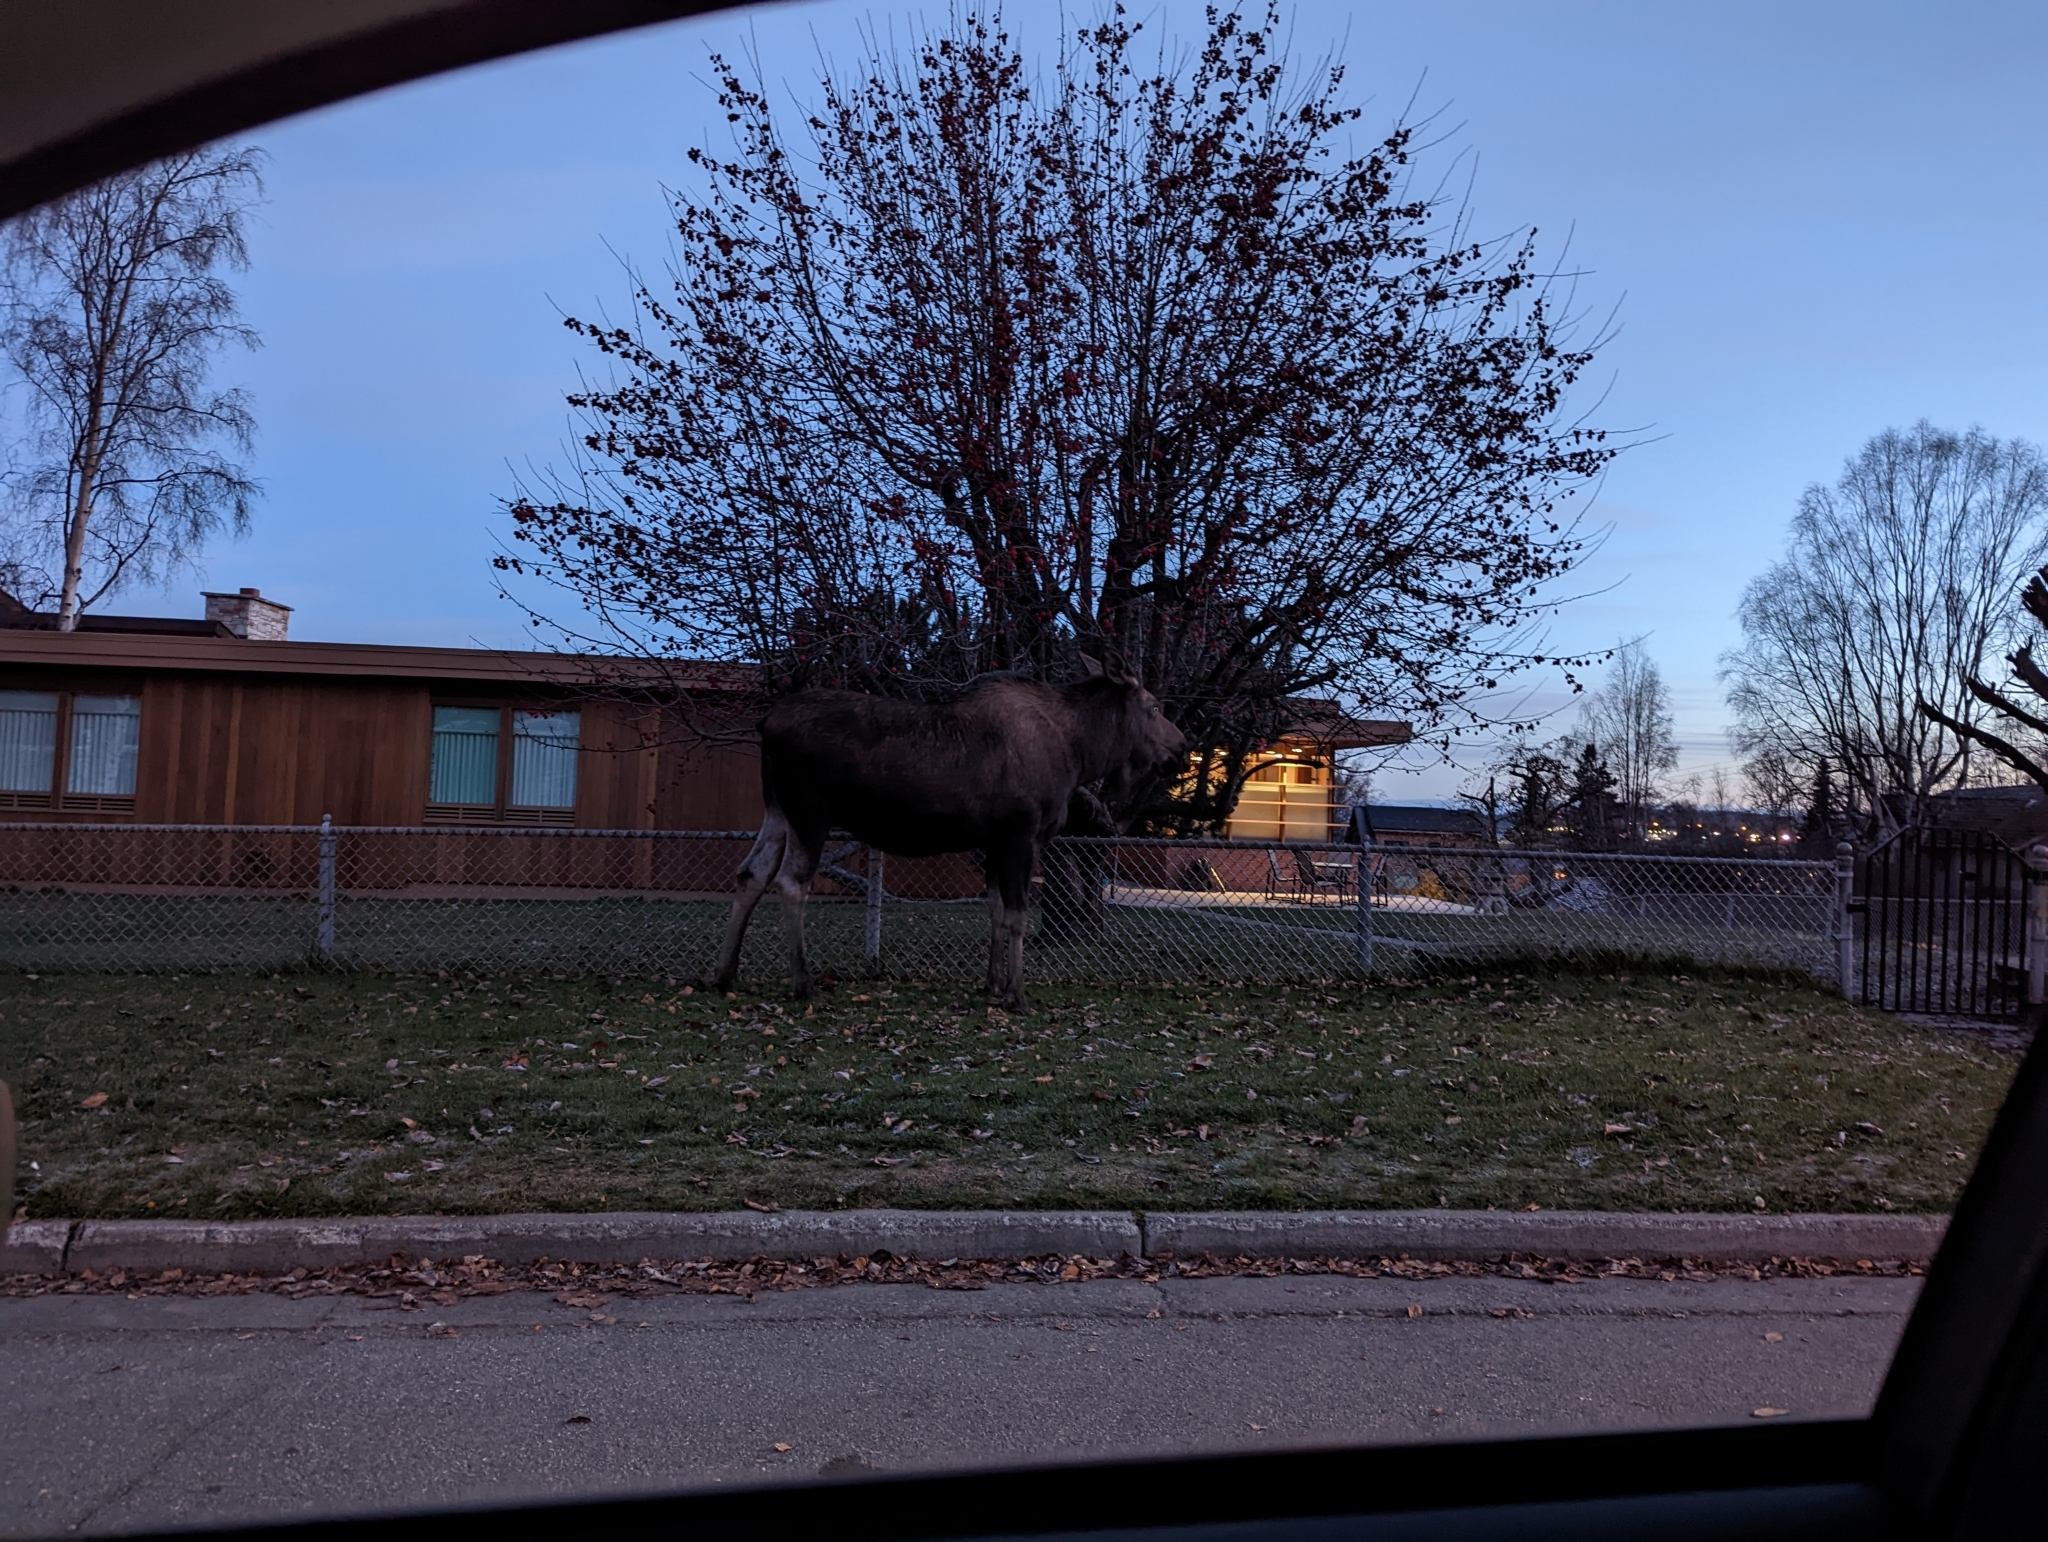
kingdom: Animalia
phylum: Chordata
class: Mammalia
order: Artiodactyla
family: Cervidae
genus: Alces
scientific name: Alces alces
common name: Moose
